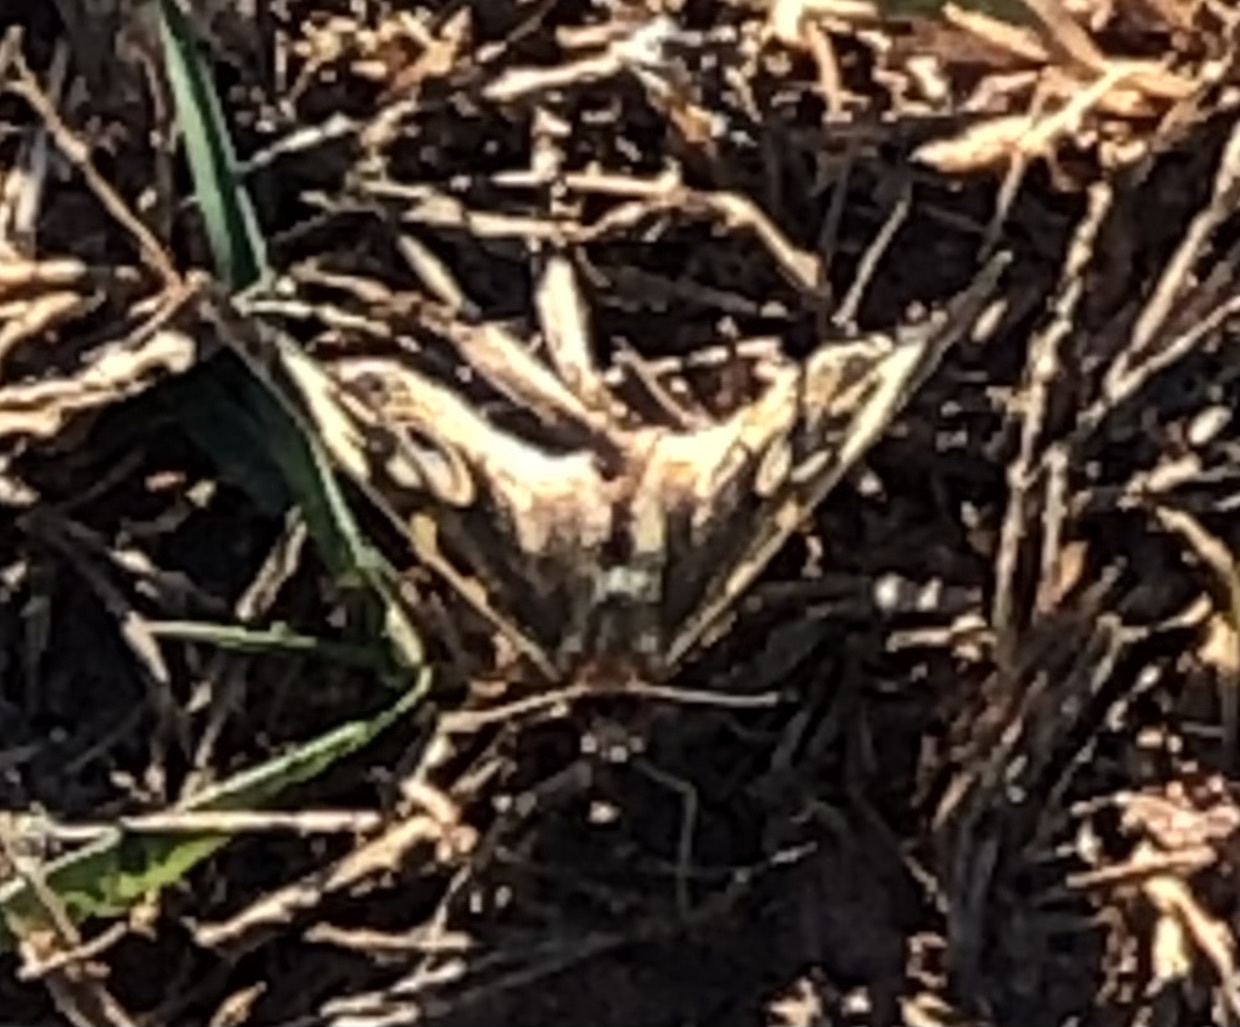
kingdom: Animalia
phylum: Arthropoda
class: Insecta
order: Lepidoptera
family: Nymphalidae
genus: Junonia
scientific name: Junonia coenia
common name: Common buckeye
